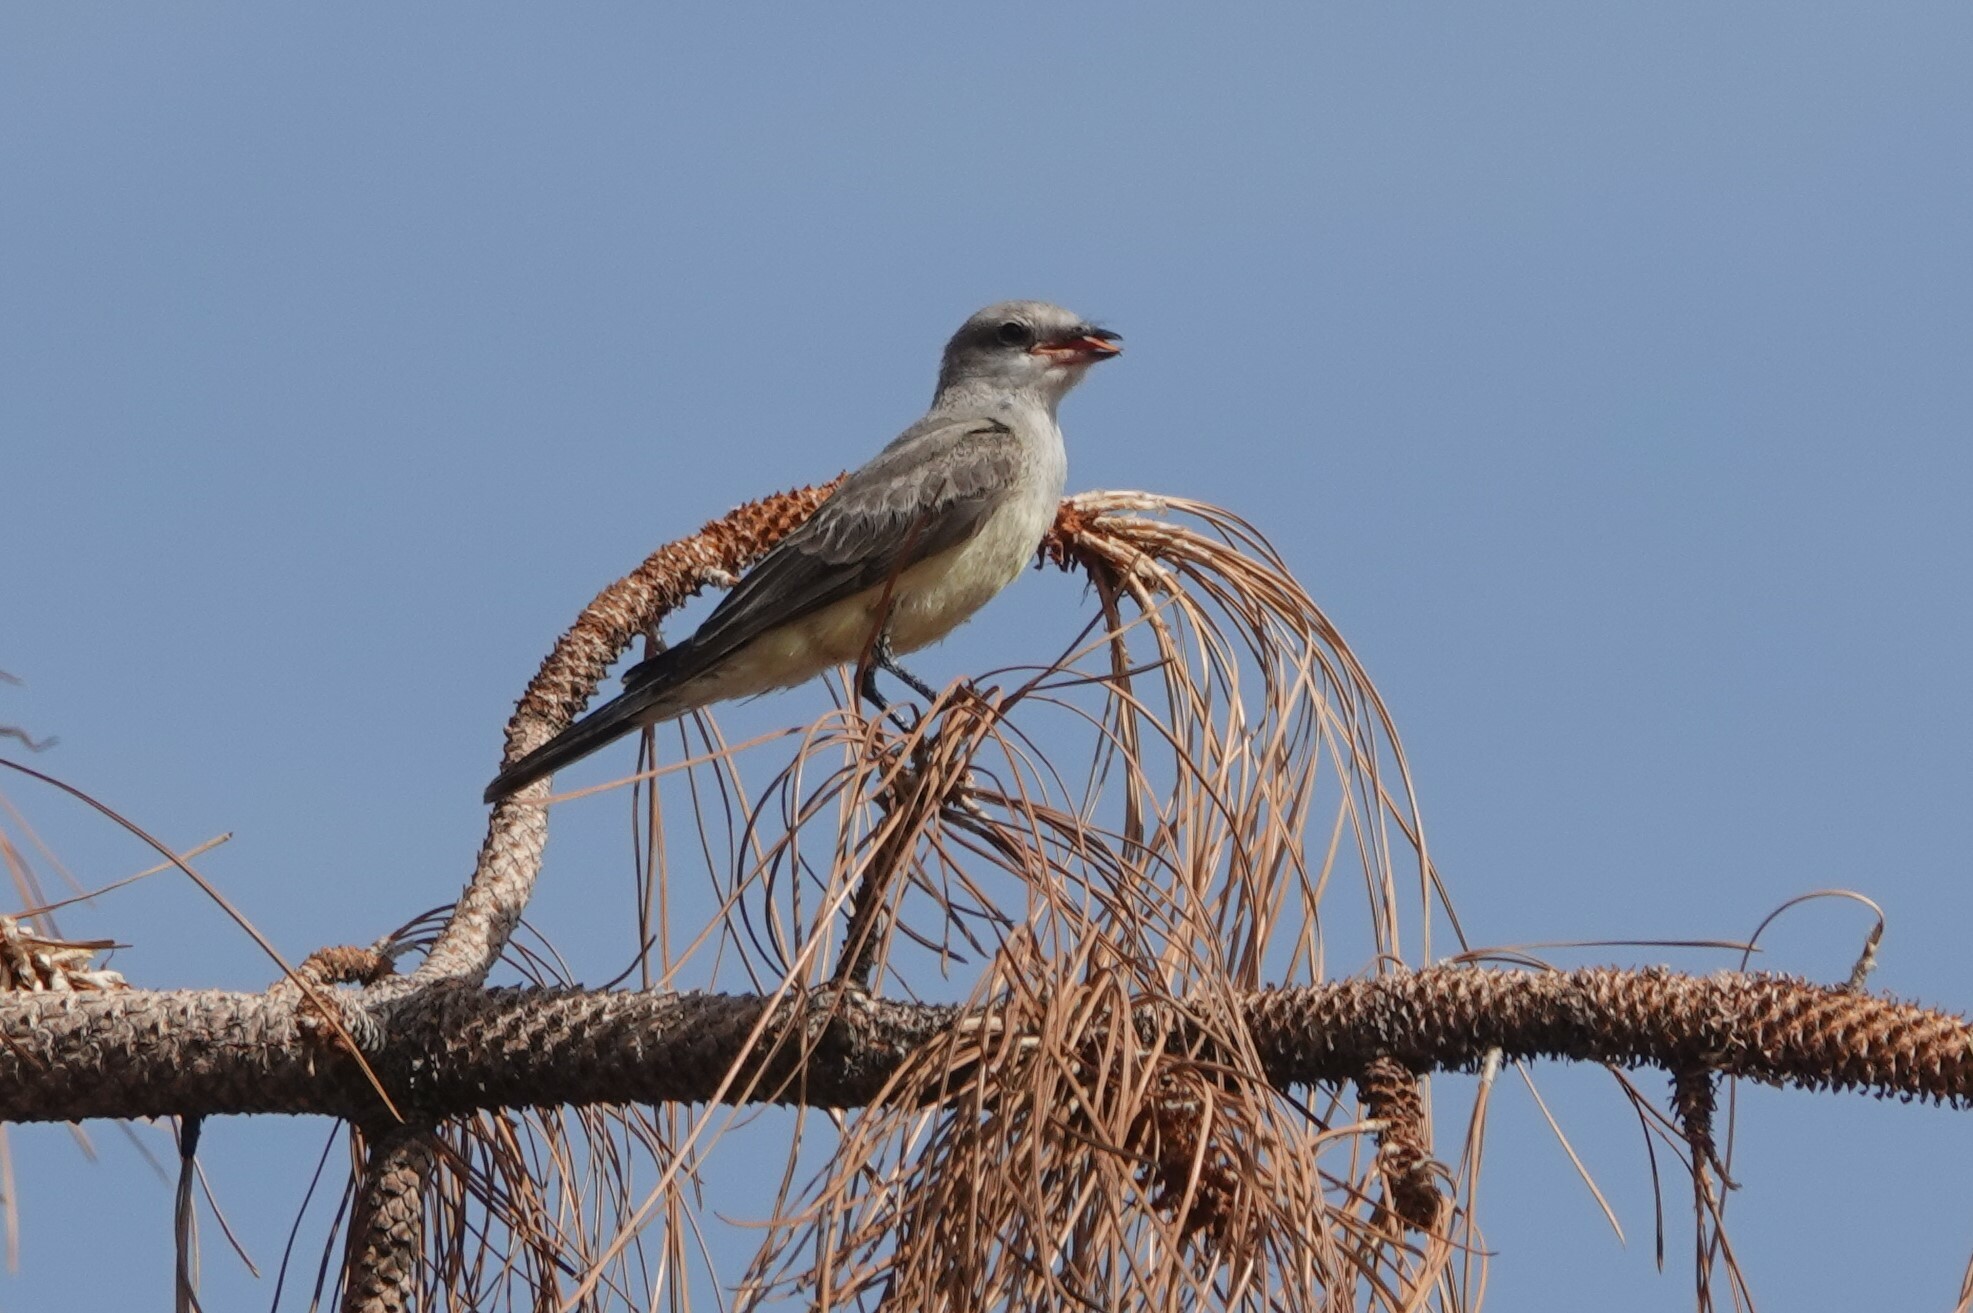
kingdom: Animalia
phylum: Chordata
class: Aves
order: Passeriformes
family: Tyrannidae
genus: Tyrannus
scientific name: Tyrannus verticalis
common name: Western kingbird
